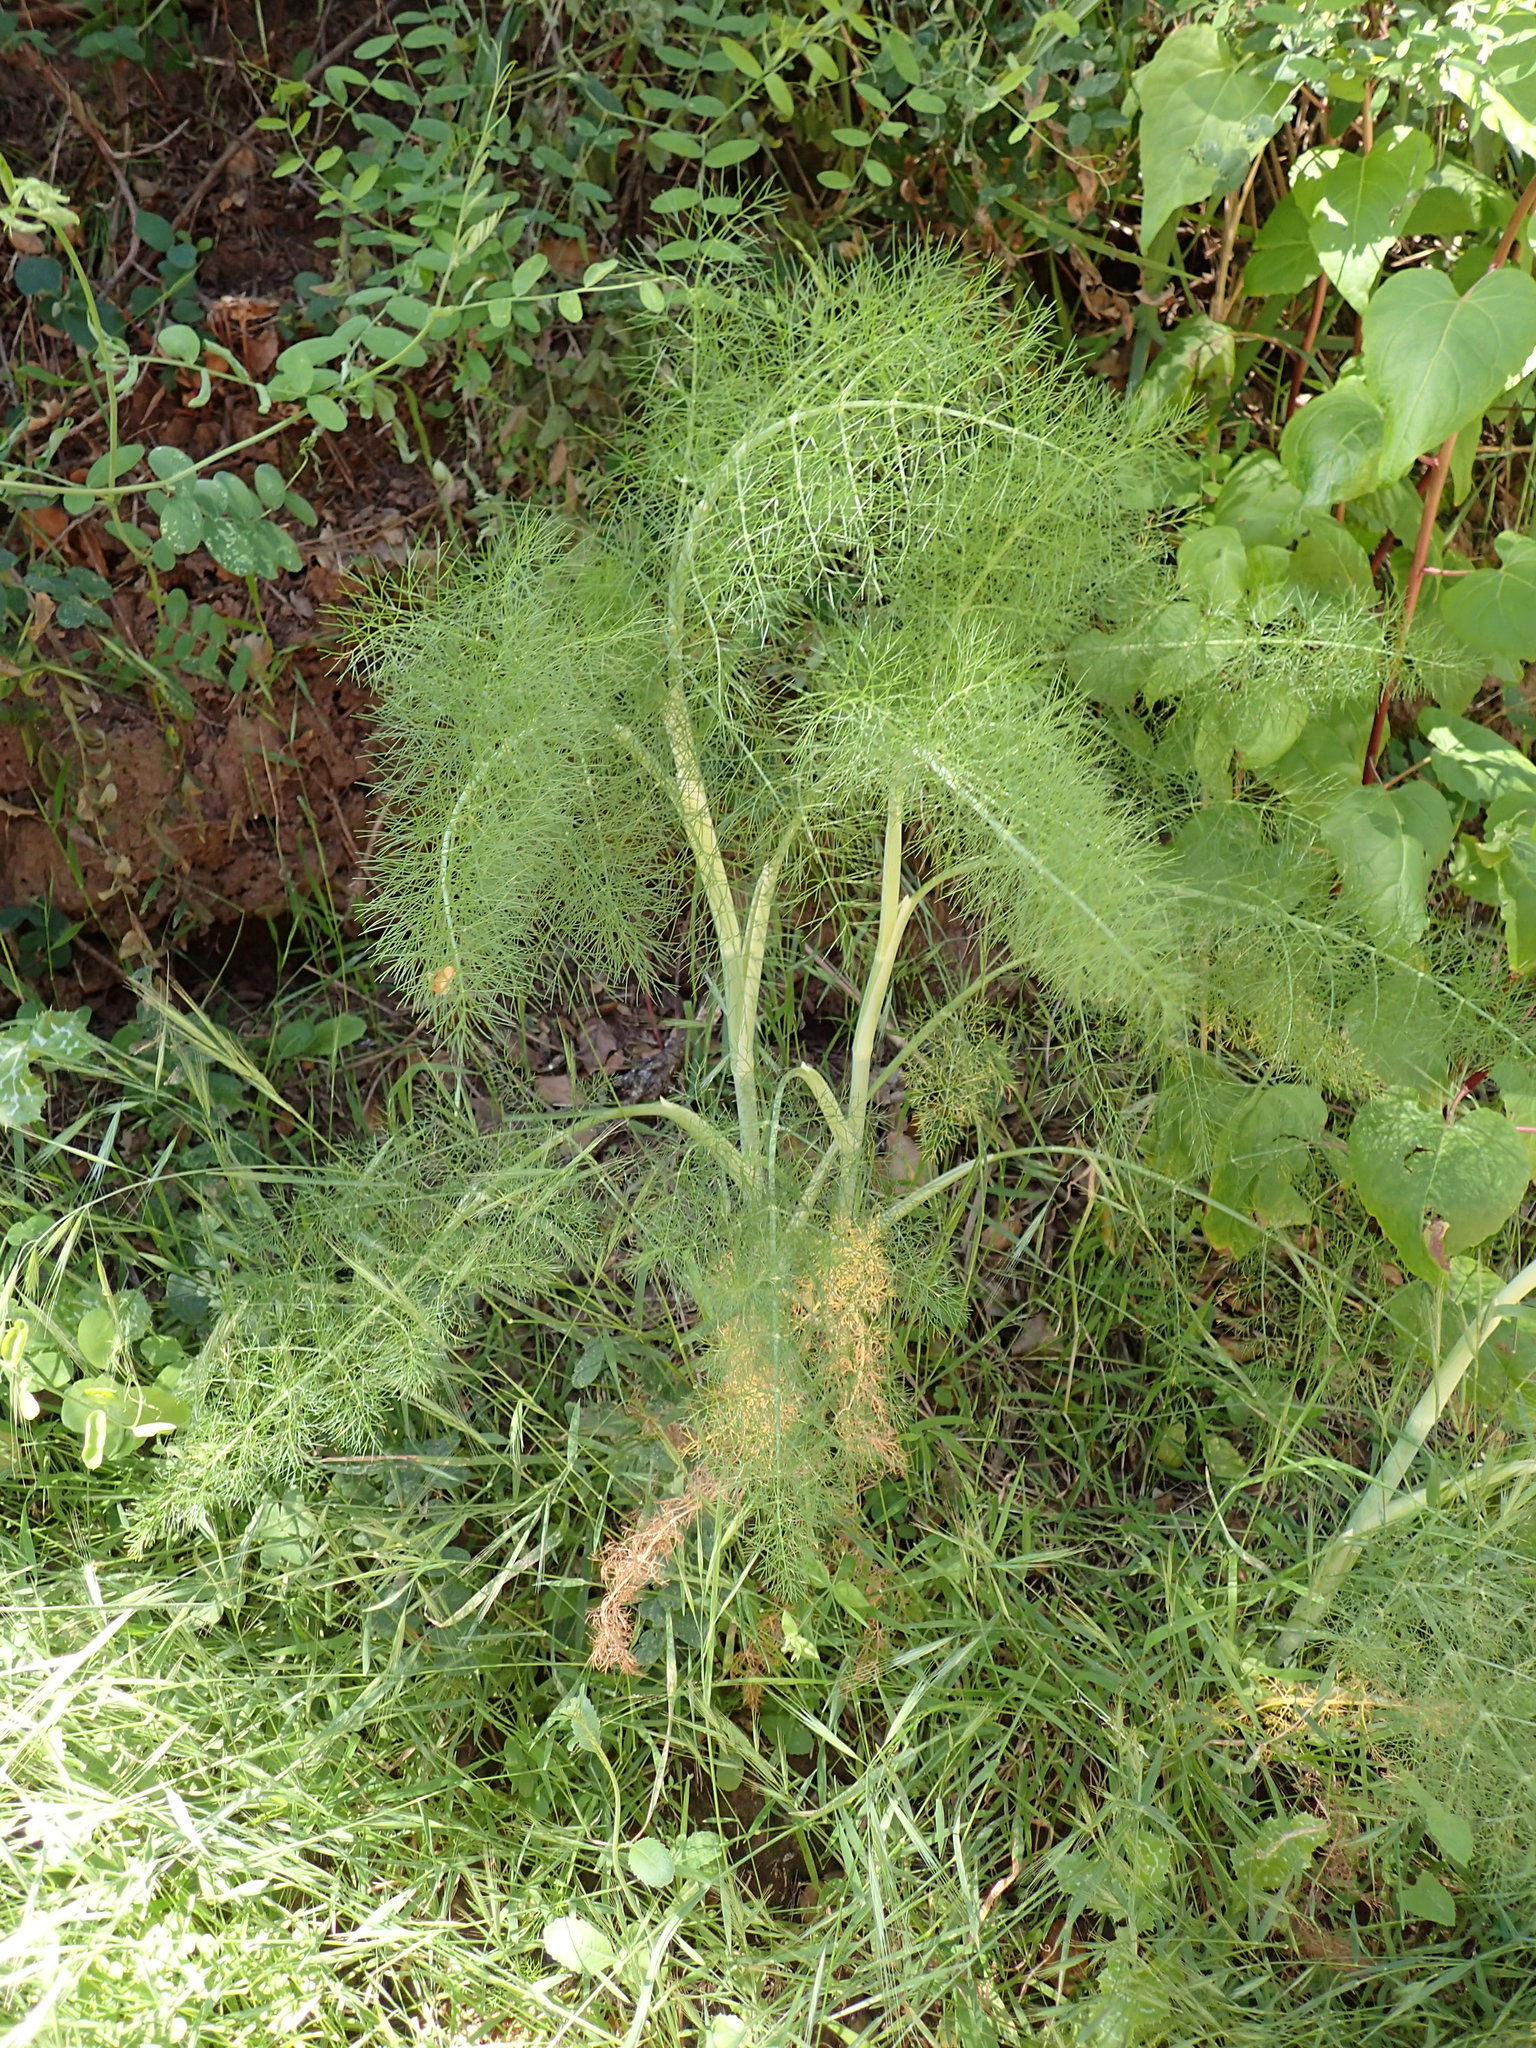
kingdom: Plantae
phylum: Tracheophyta
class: Magnoliopsida
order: Apiales
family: Apiaceae
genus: Foeniculum
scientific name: Foeniculum vulgare
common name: Fennel
